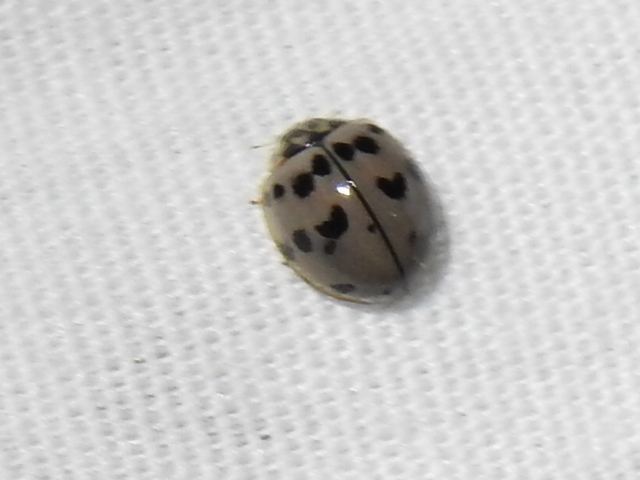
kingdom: Animalia
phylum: Arthropoda
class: Insecta
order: Coleoptera
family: Coccinellidae
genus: Olla
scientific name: Olla v-nigrum
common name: Ashy gray lady beetle
